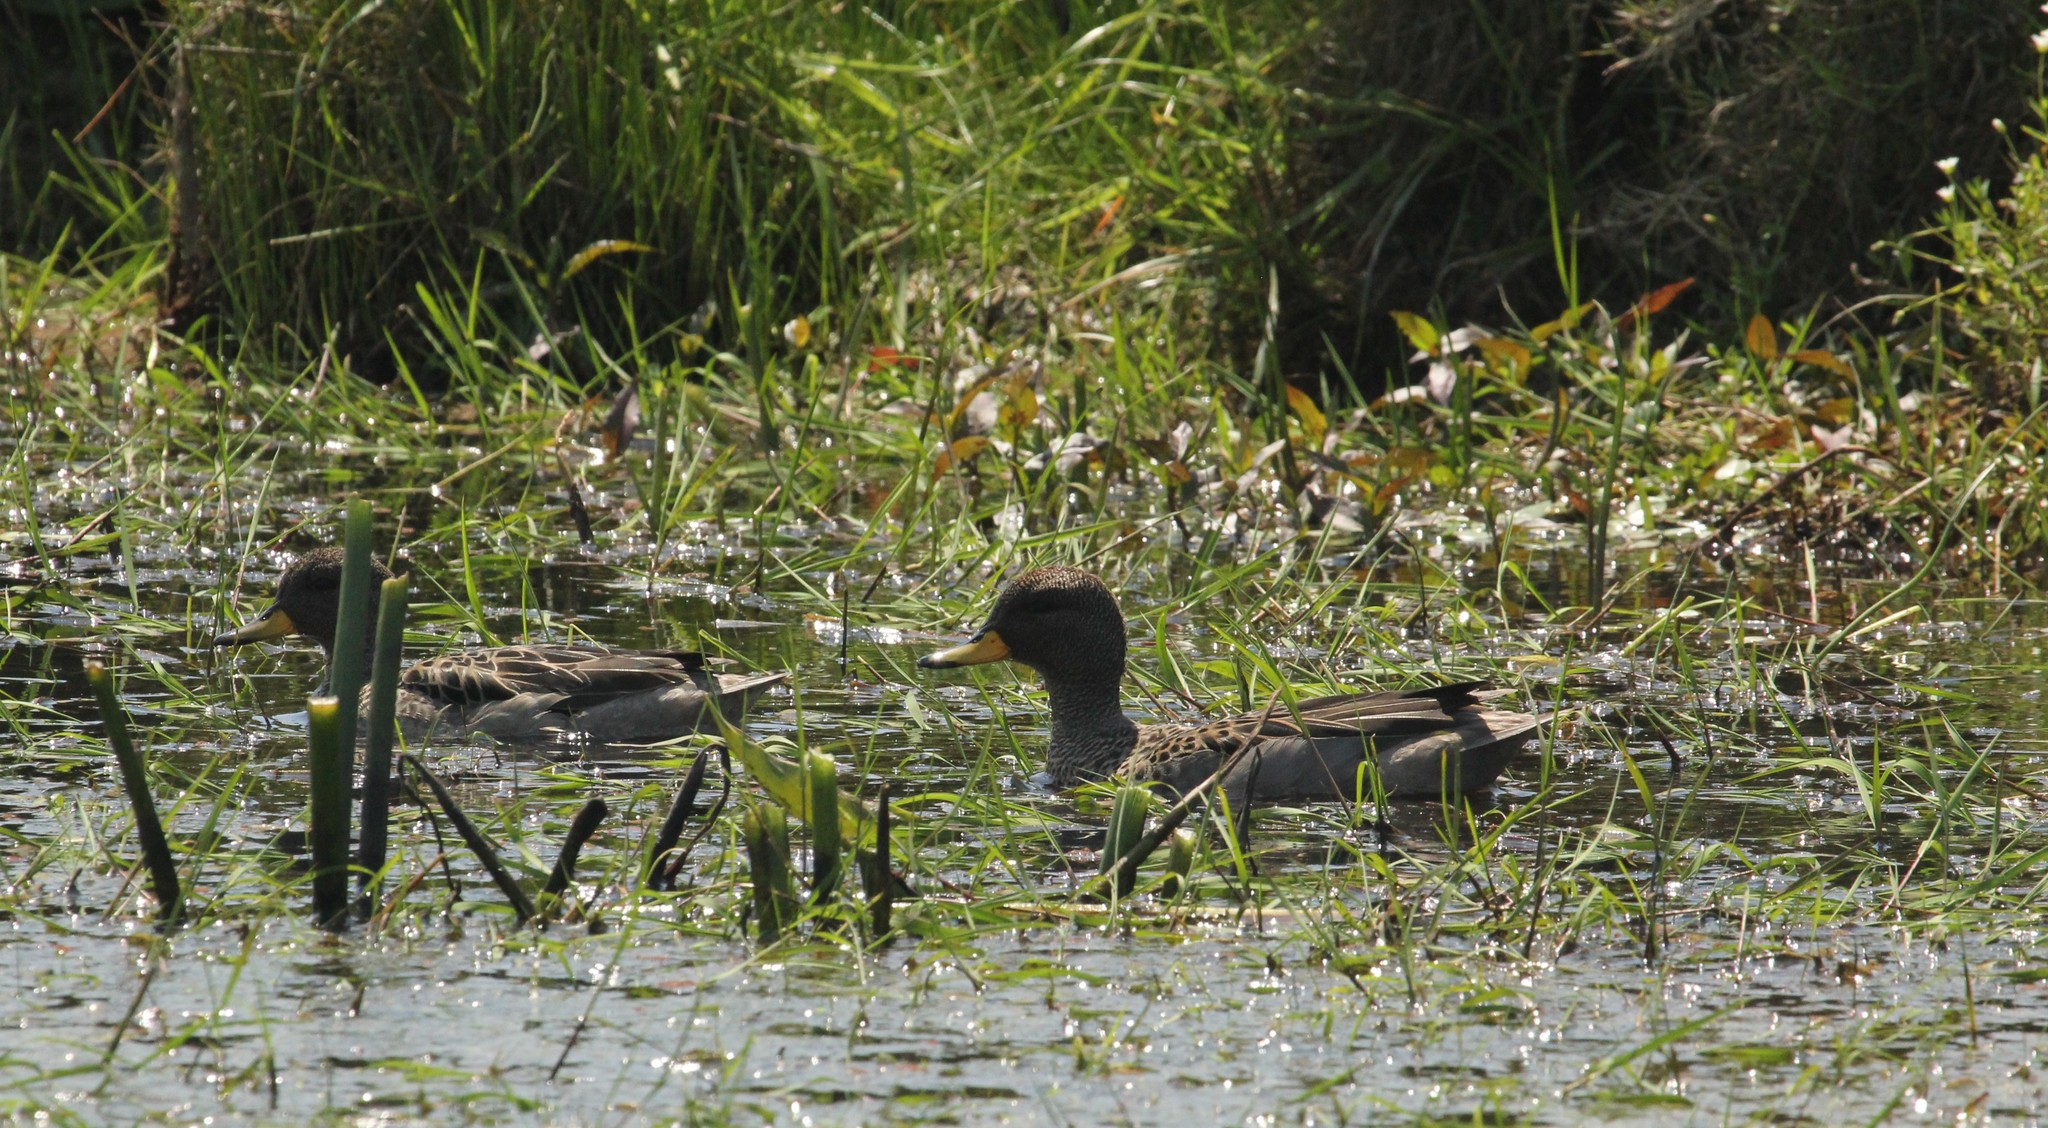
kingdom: Animalia
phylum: Chordata
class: Aves
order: Anseriformes
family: Anatidae
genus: Anas
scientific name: Anas flavirostris
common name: Yellow-billed teal
